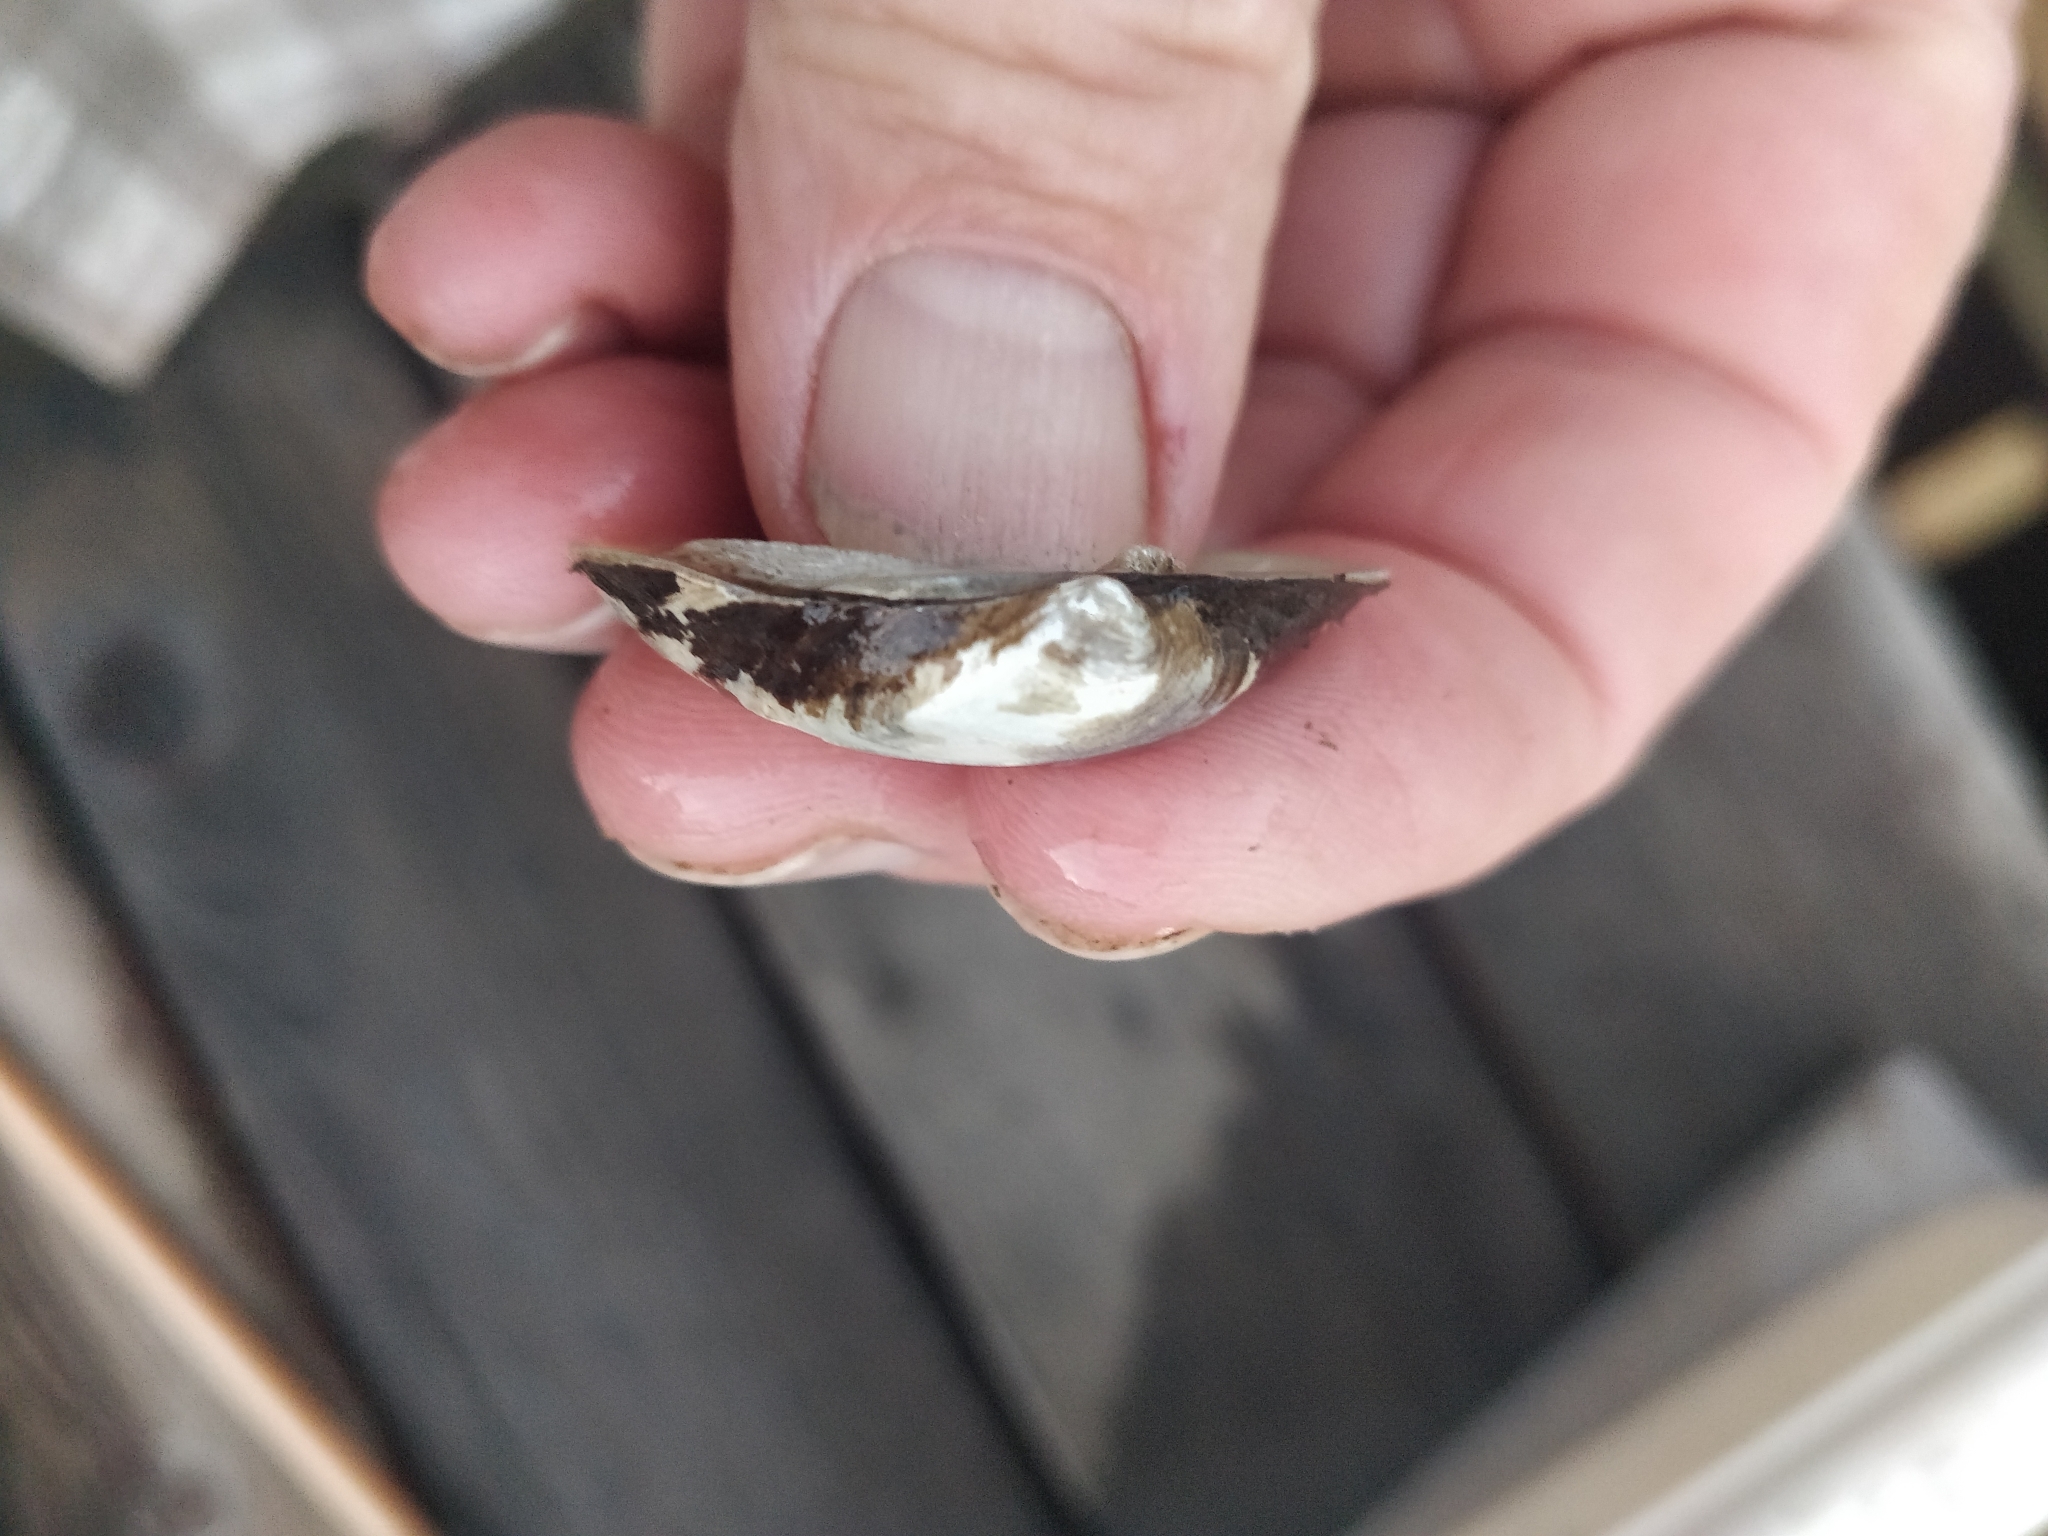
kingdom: Animalia
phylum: Mollusca
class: Bivalvia
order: Unionida
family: Unionidae
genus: Fusconaia
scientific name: Fusconaia flava
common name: Wabash pigtoe
